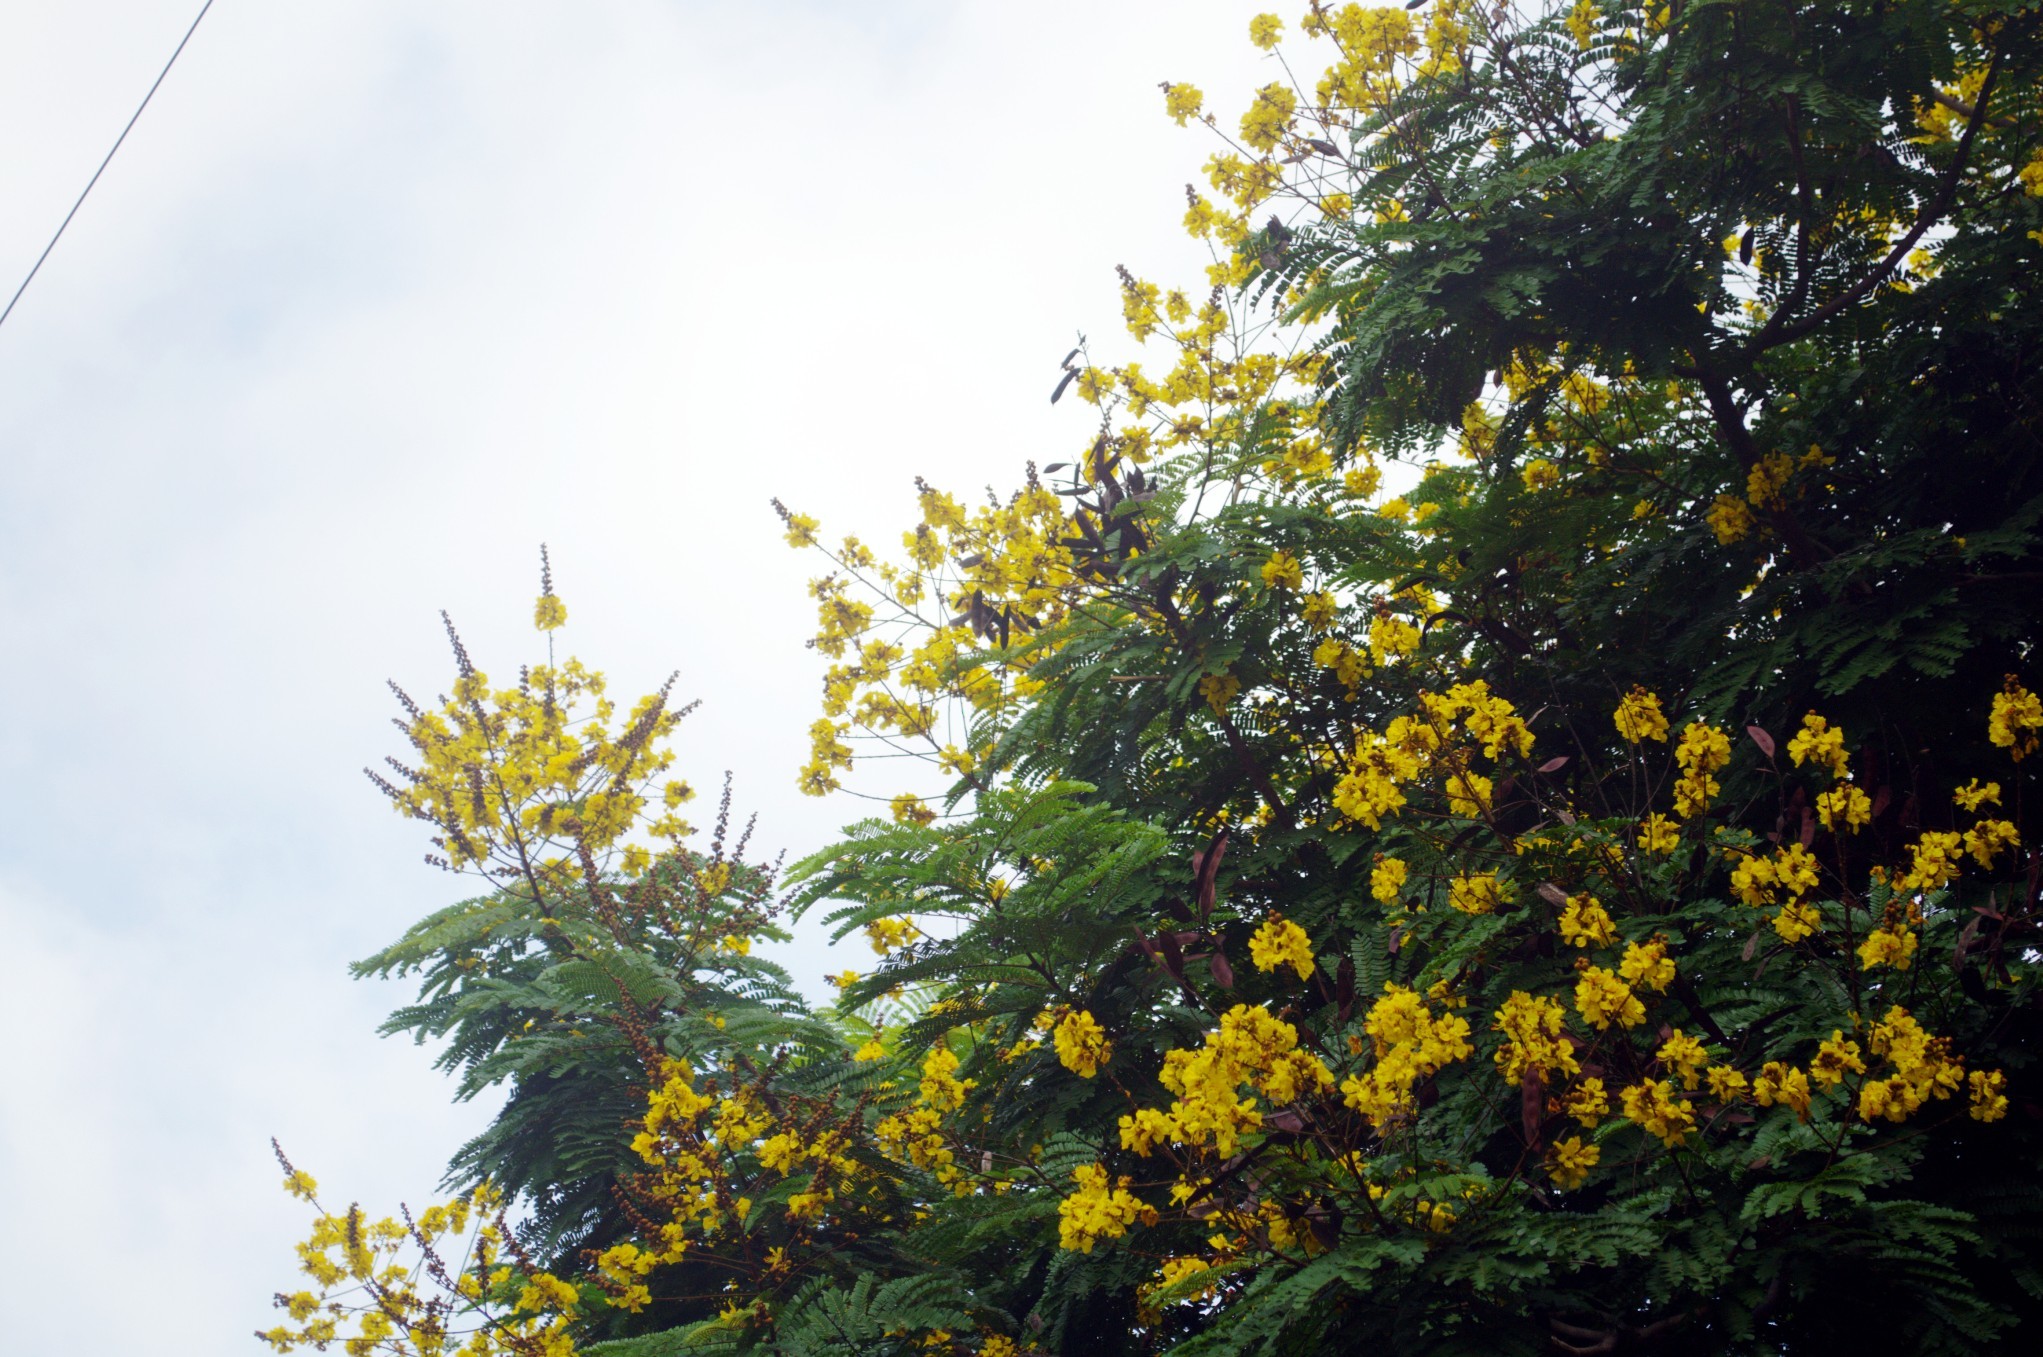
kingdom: Plantae
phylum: Tracheophyta
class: Magnoliopsida
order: Fabales
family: Fabaceae
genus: Peltophorum
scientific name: Peltophorum pterocarpum
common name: Yellow flame
